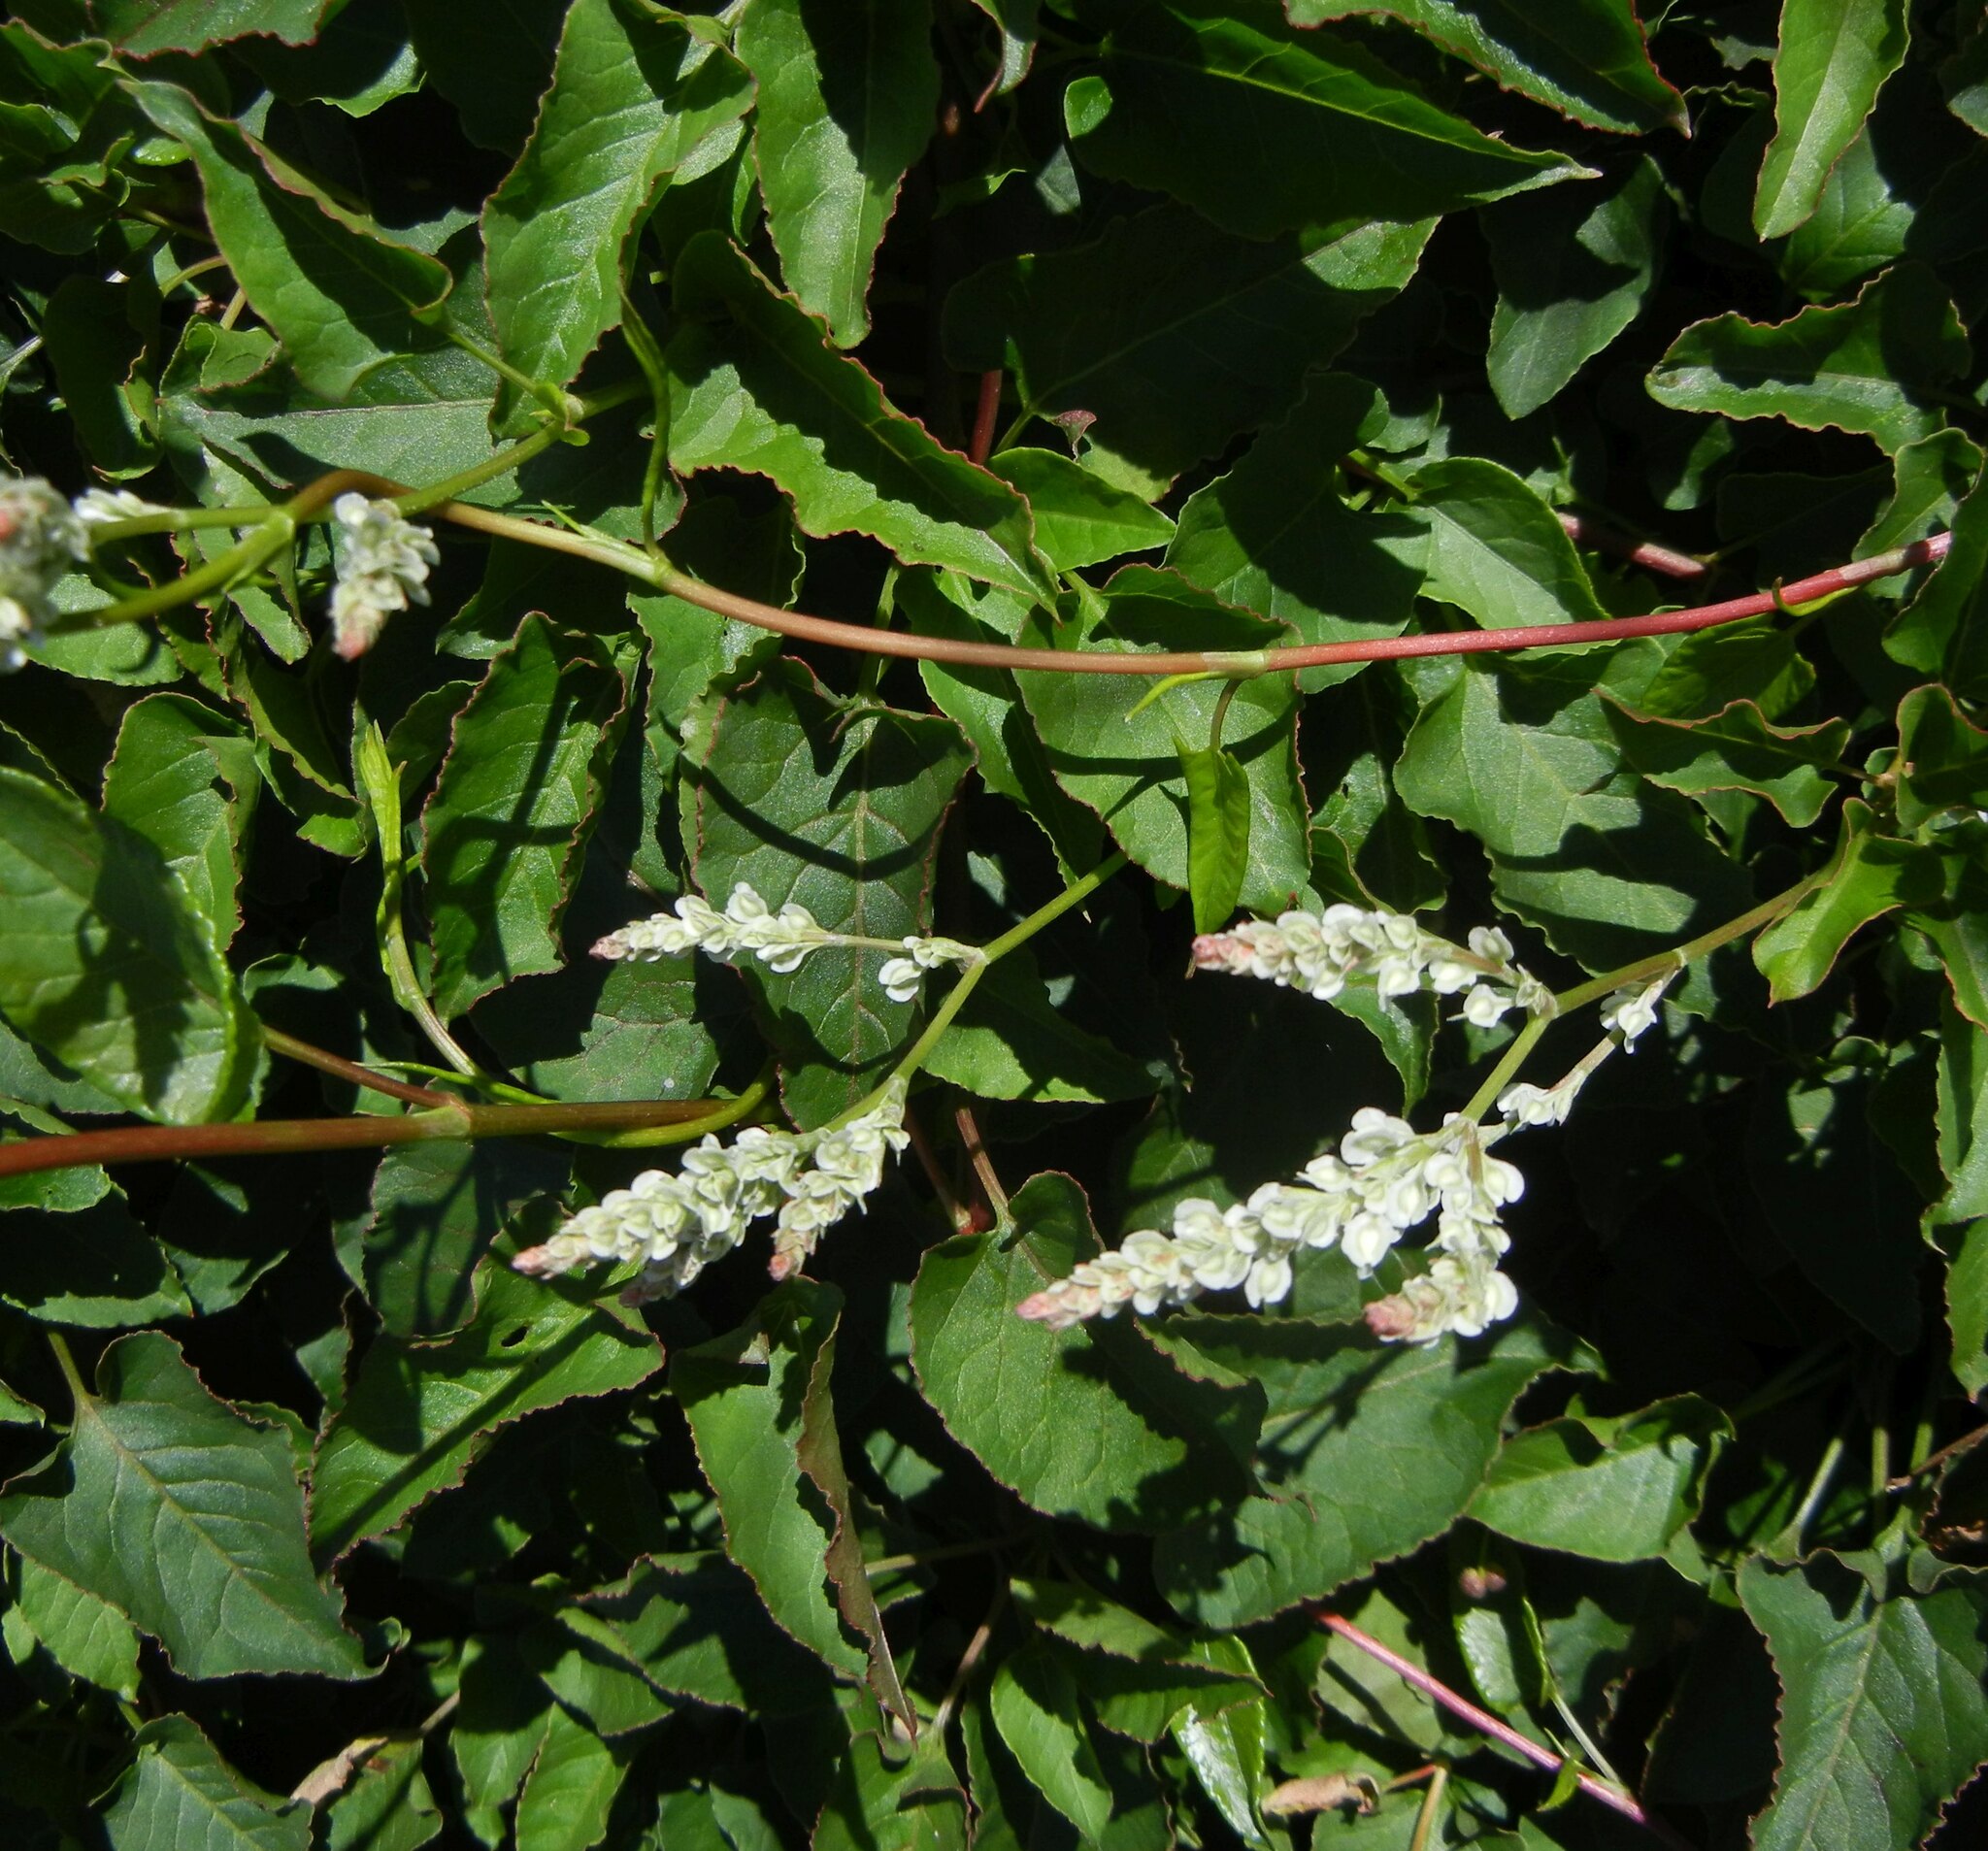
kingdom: Plantae
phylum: Tracheophyta
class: Magnoliopsida
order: Caryophyllales
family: Polygonaceae
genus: Fallopia
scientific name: Fallopia baldschuanica
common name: Russian-vine
